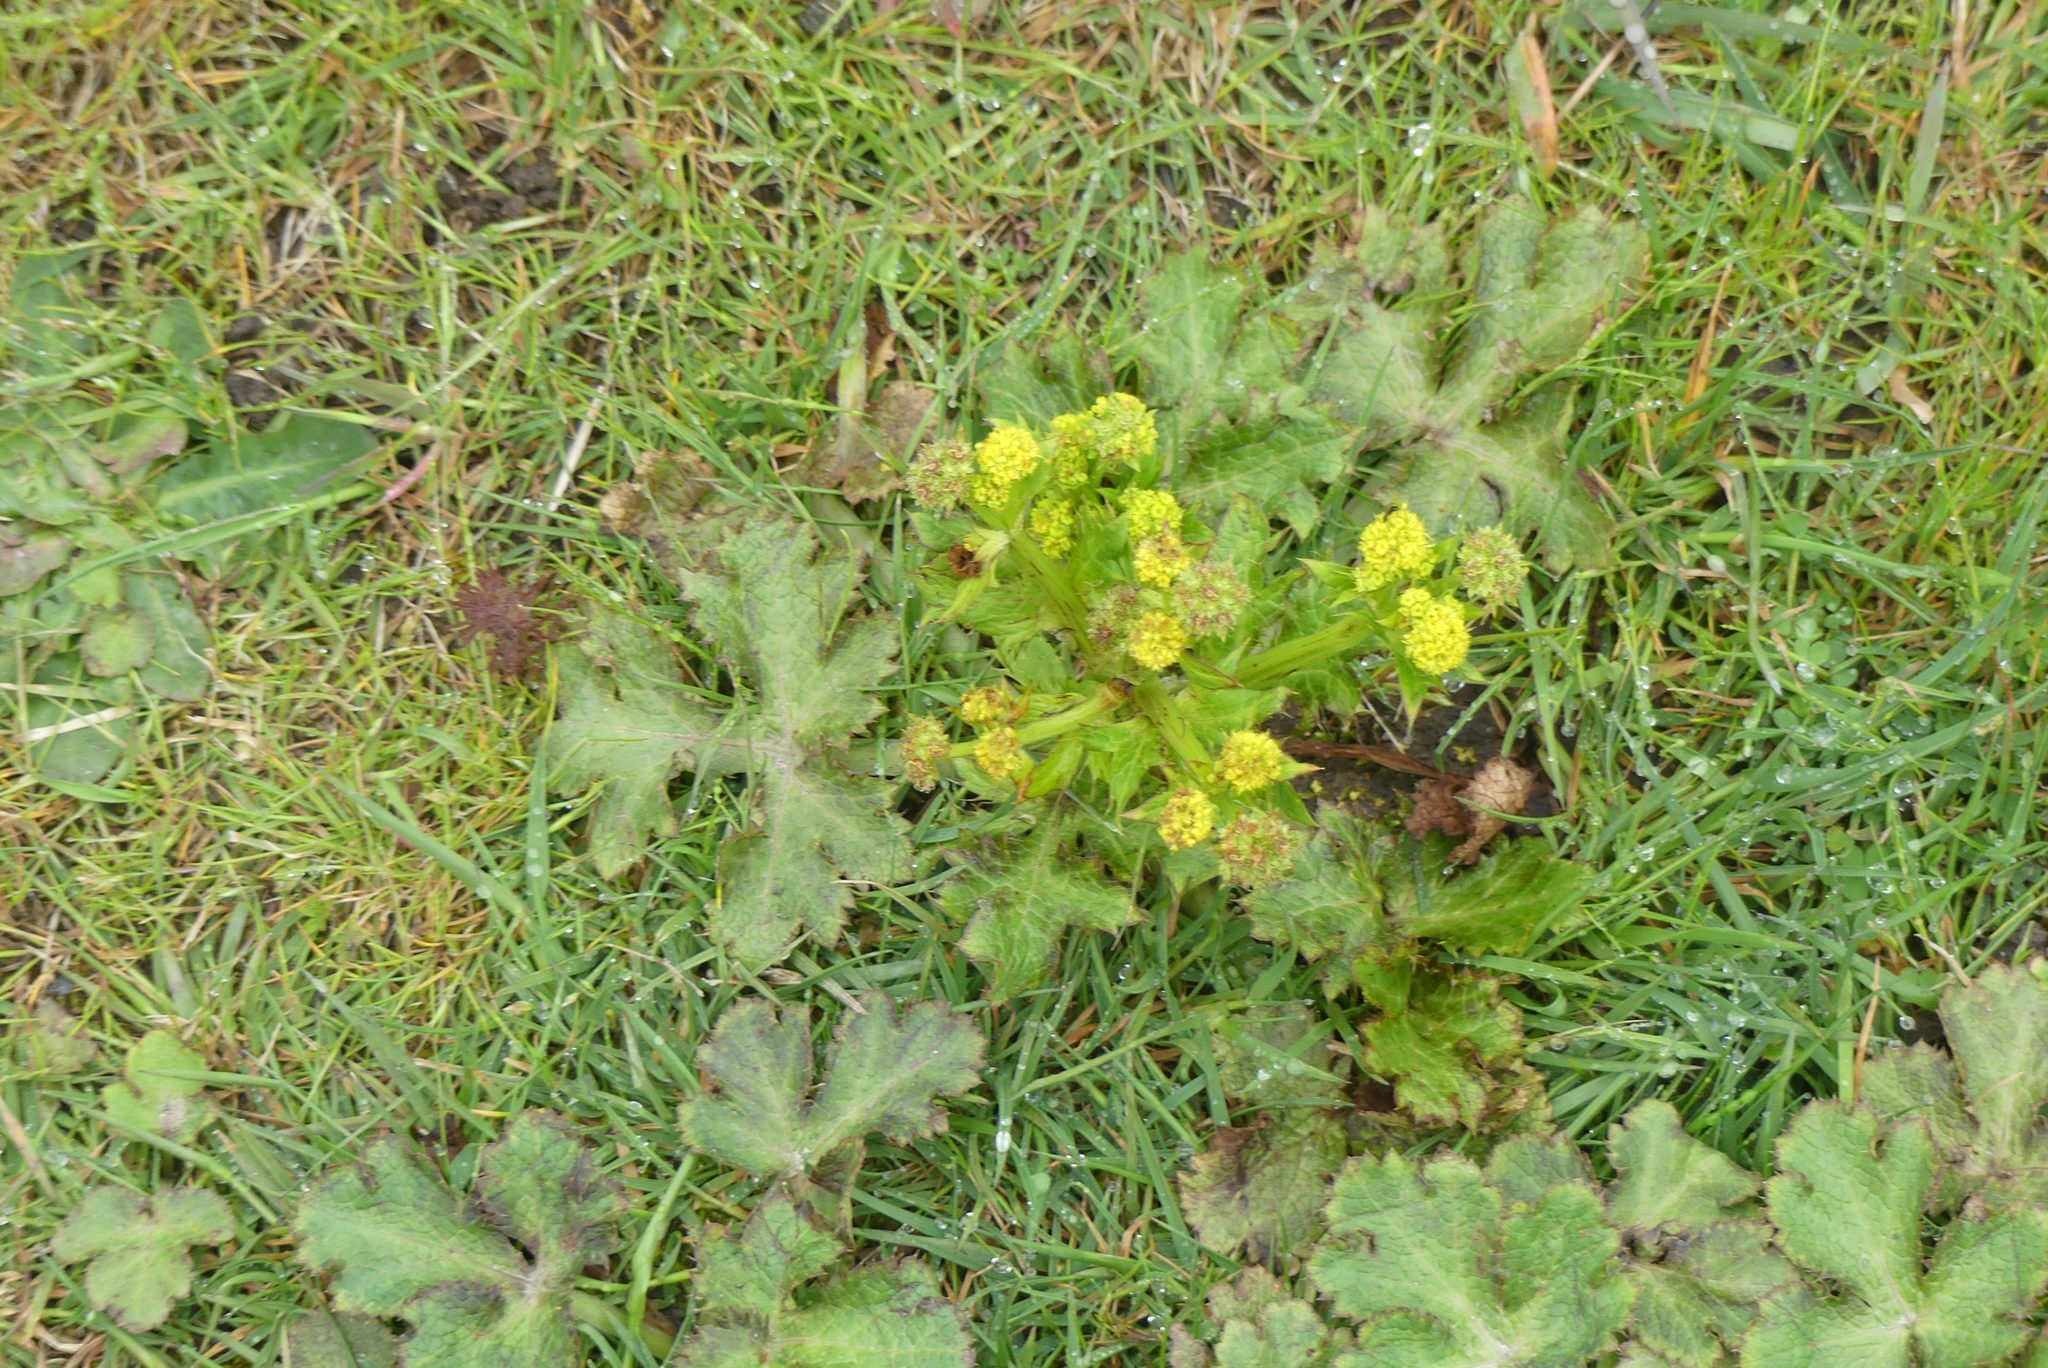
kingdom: Plantae
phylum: Tracheophyta
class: Magnoliopsida
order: Apiales
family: Apiaceae
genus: Sanicula
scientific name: Sanicula crassicaulis
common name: Western snakeroot
